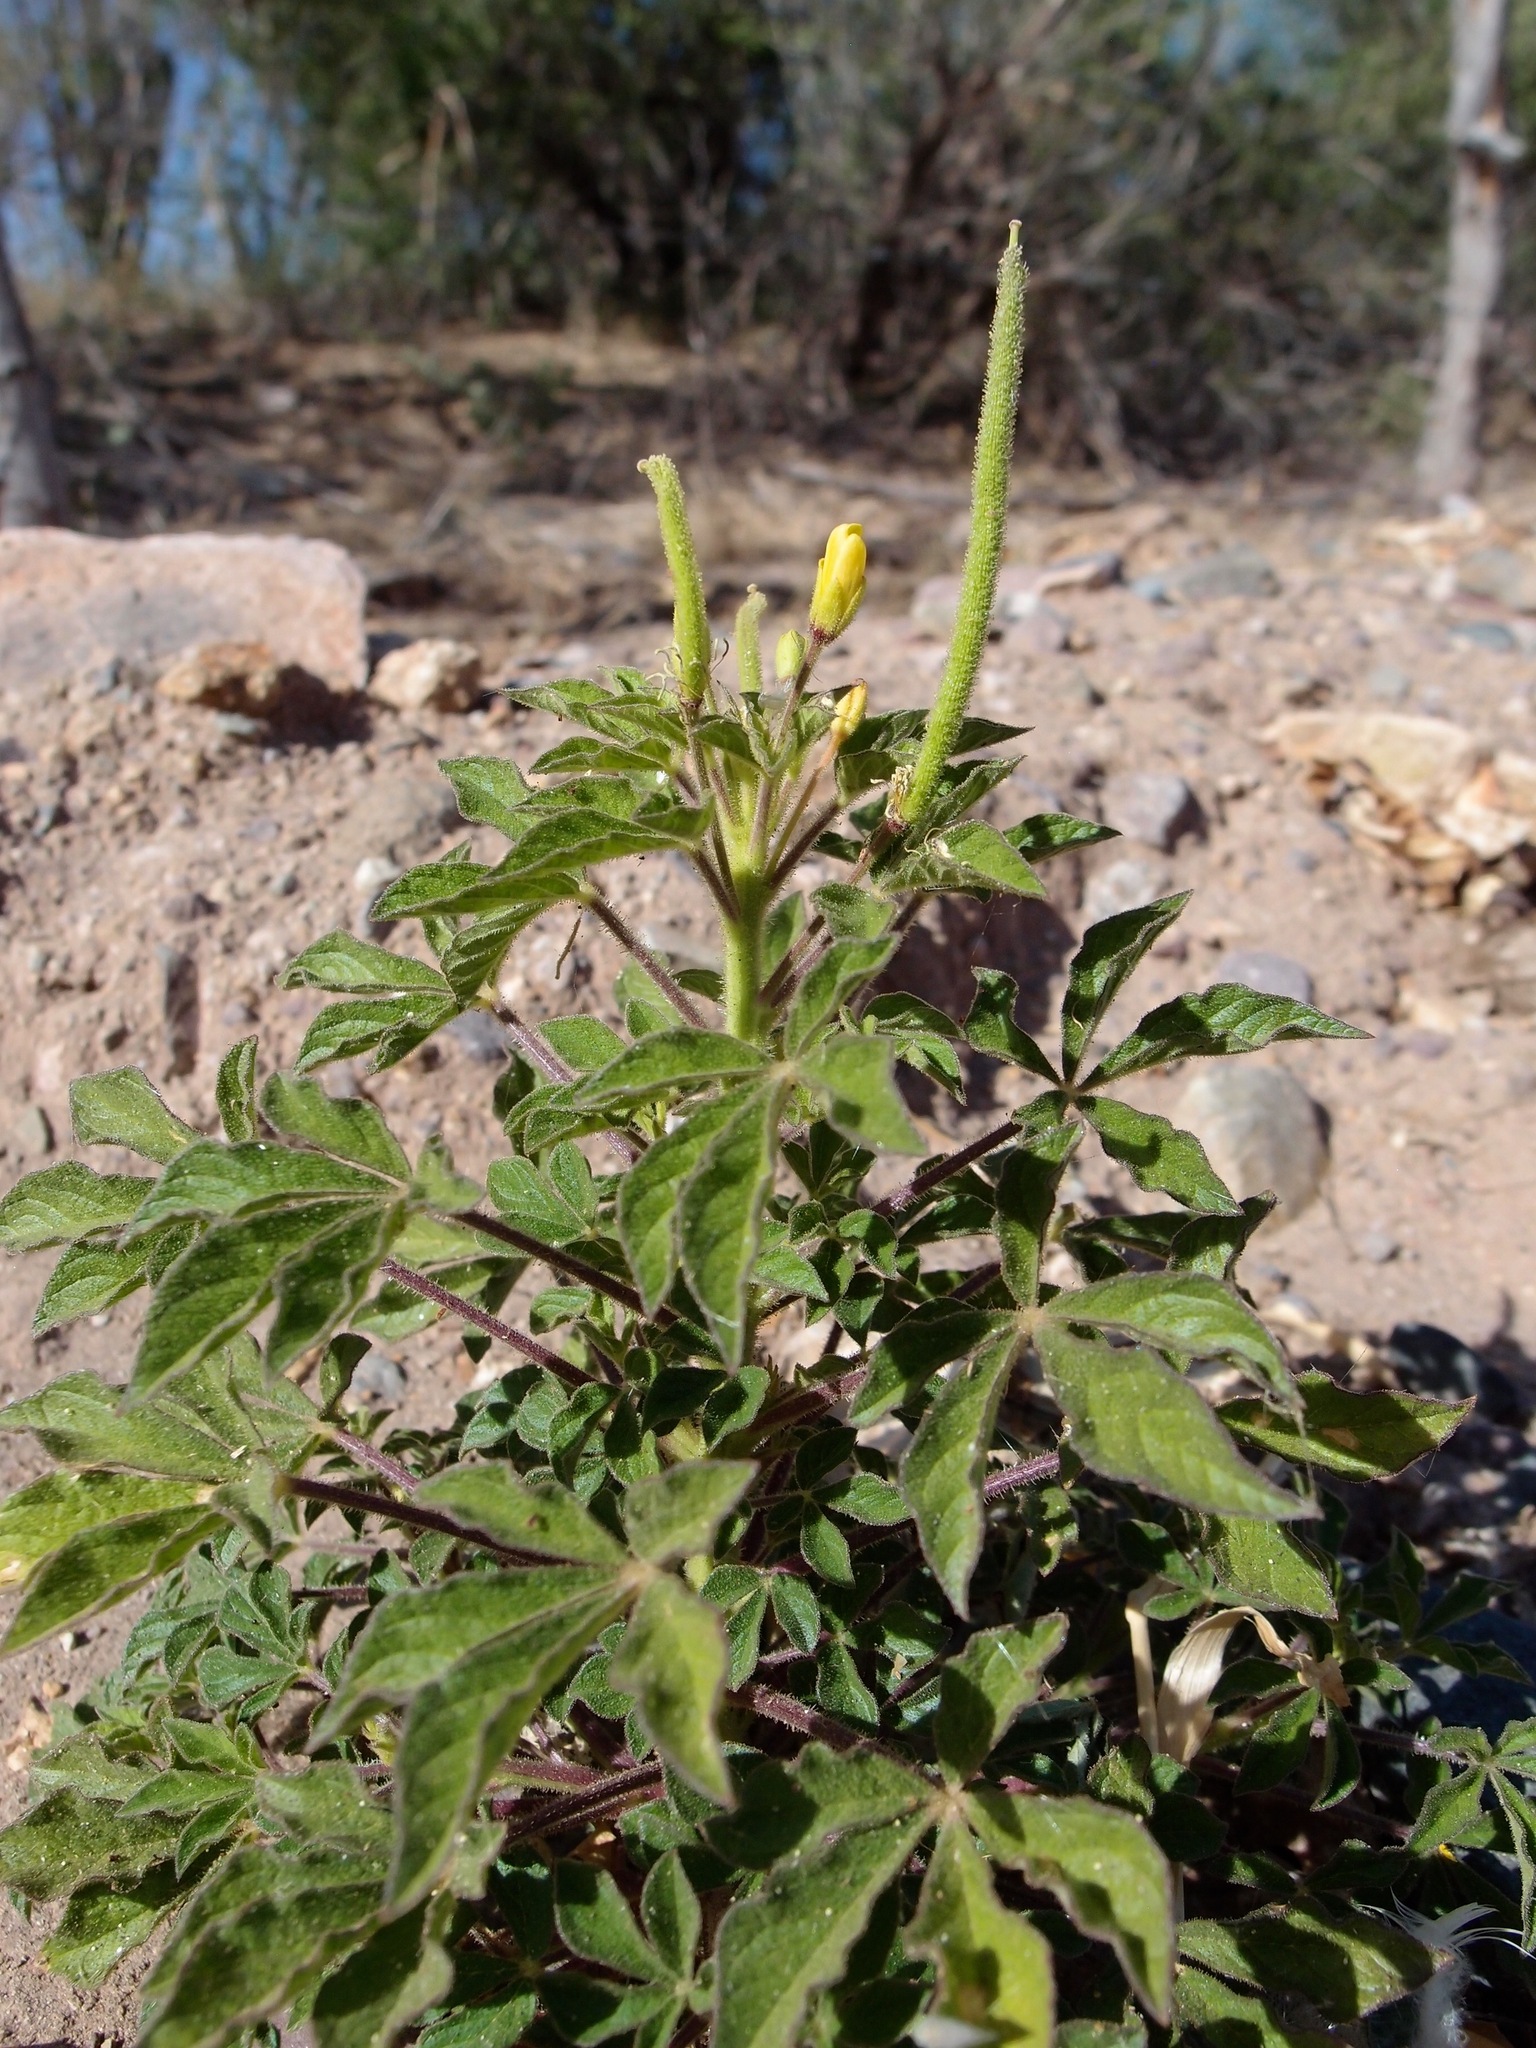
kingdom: Plantae
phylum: Tracheophyta
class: Magnoliopsida
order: Brassicales
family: Cleomaceae
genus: Arivela
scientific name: Arivela viscosa
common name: Asian spiderflower
